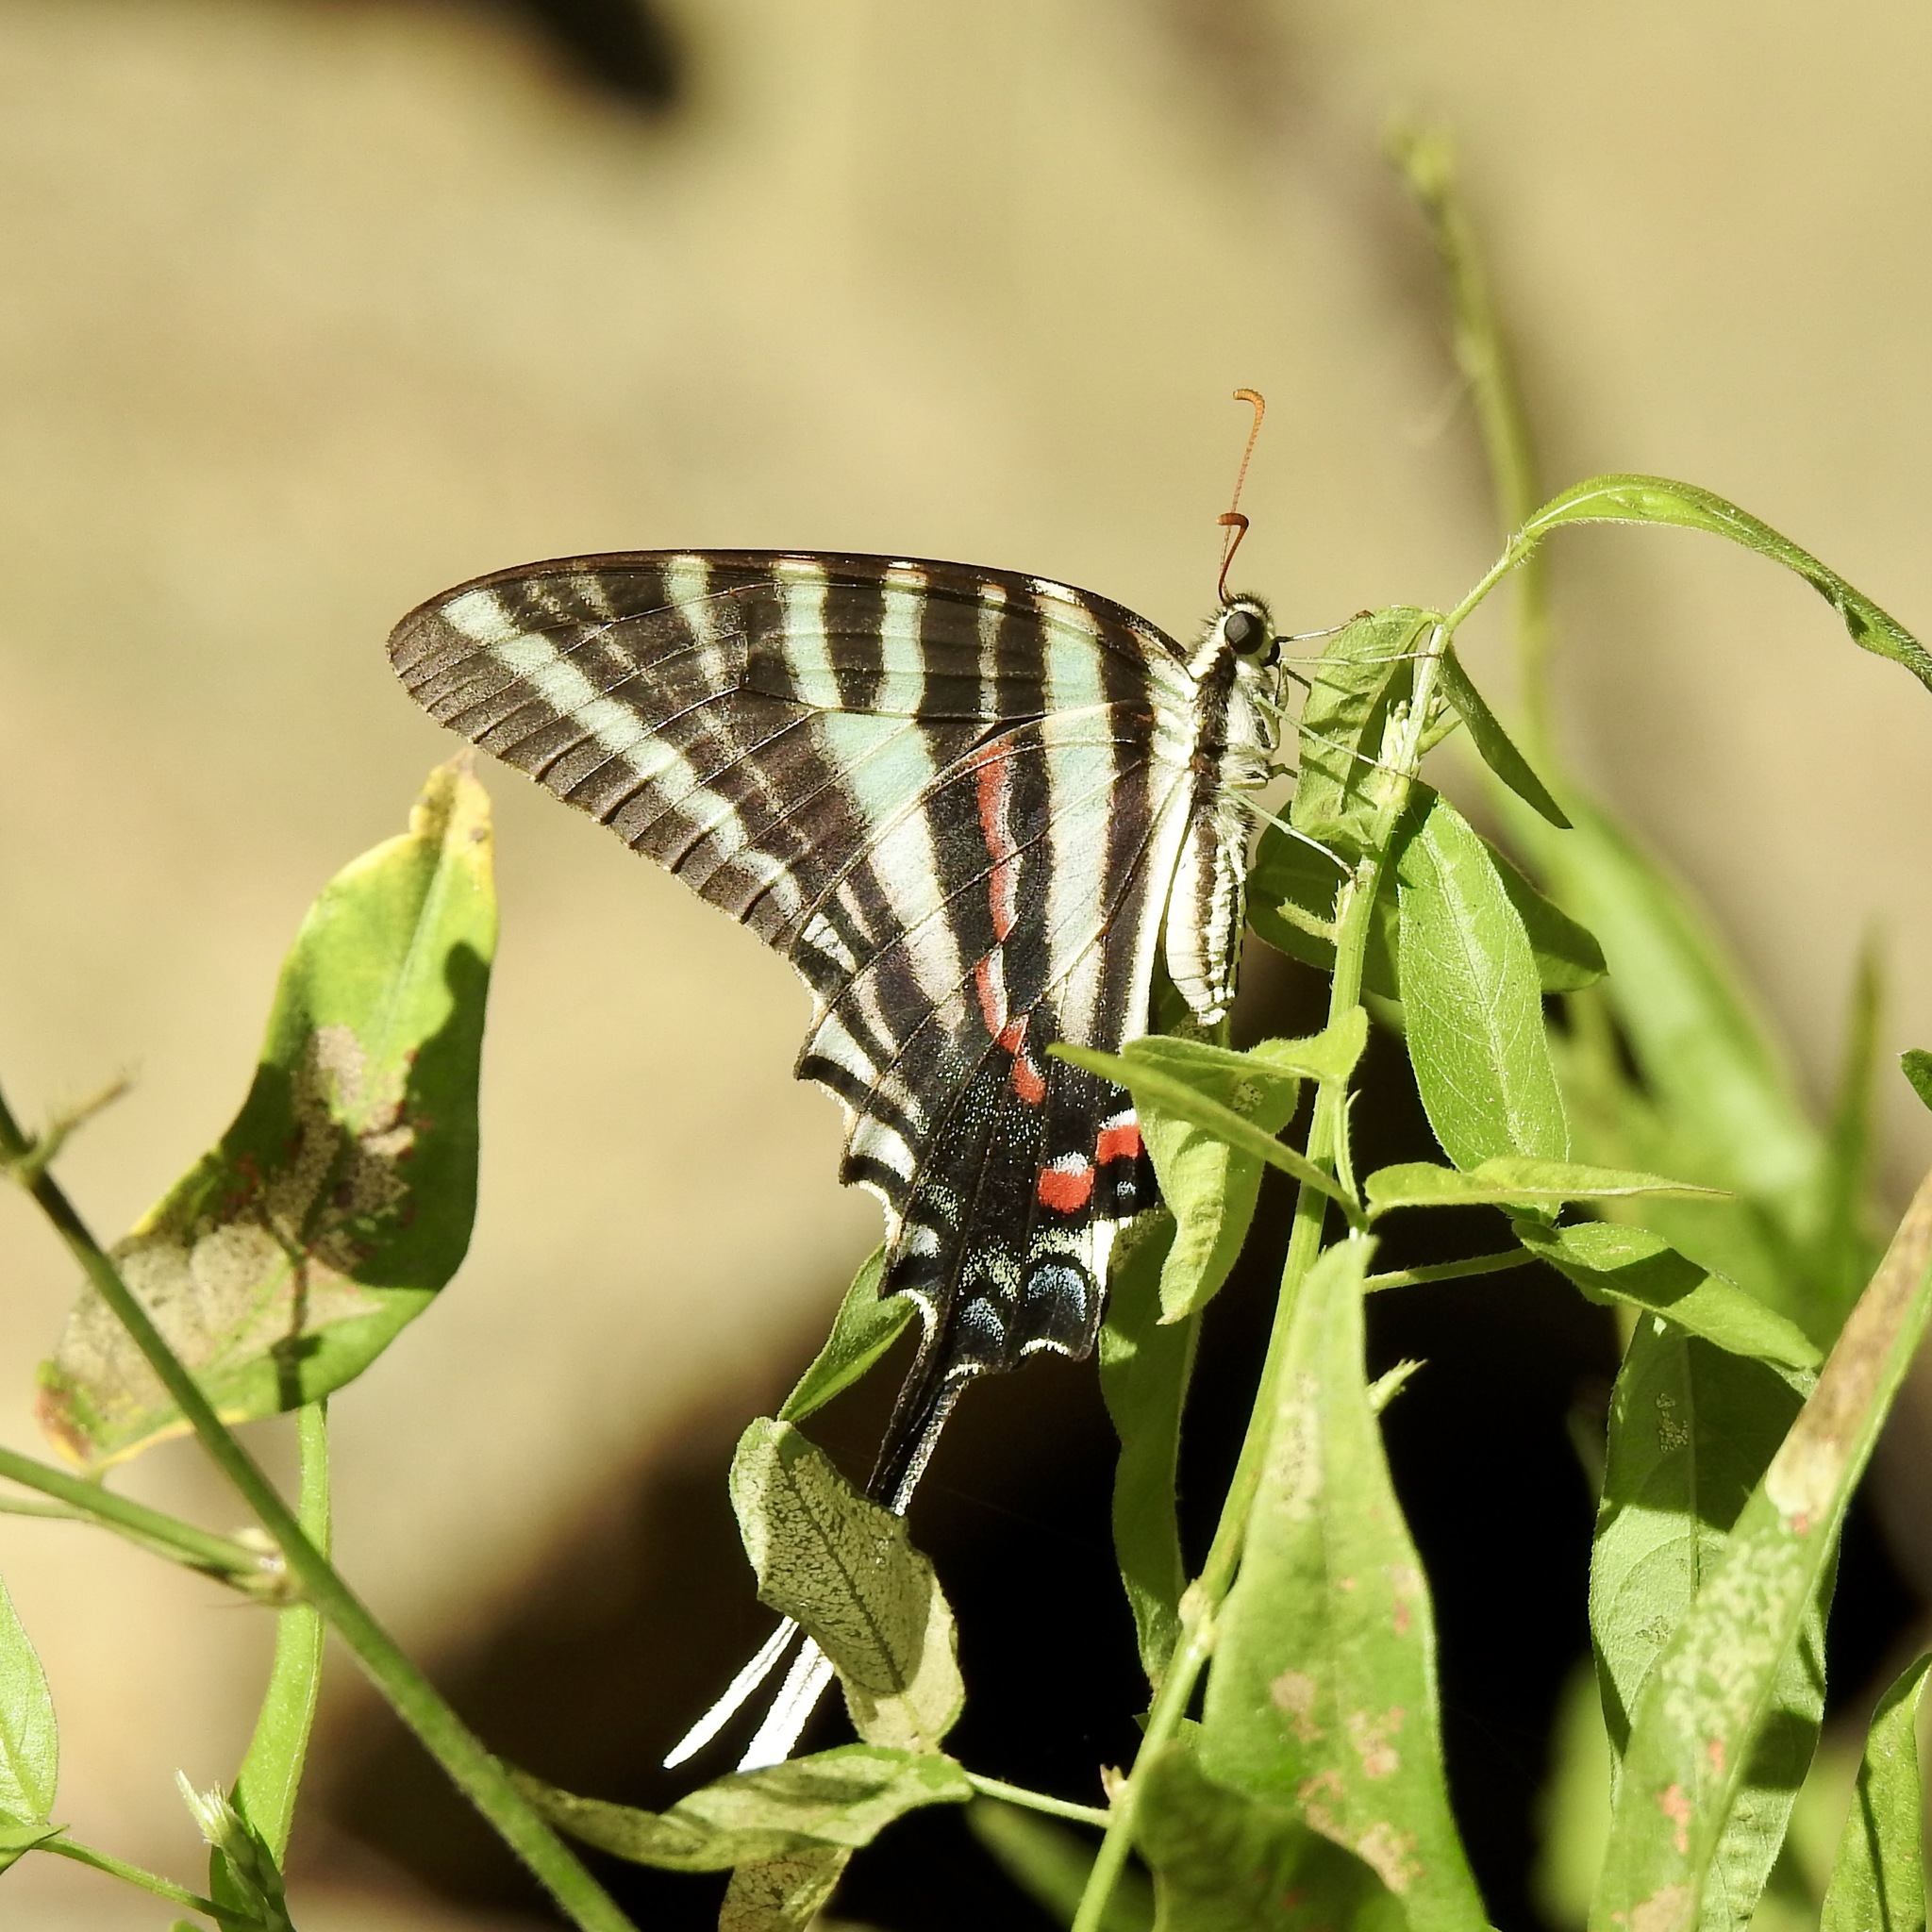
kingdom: Animalia
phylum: Arthropoda
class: Insecta
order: Lepidoptera
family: Papilionidae
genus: Protographium
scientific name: Protographium marcellus
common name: Zebra swallowtail
